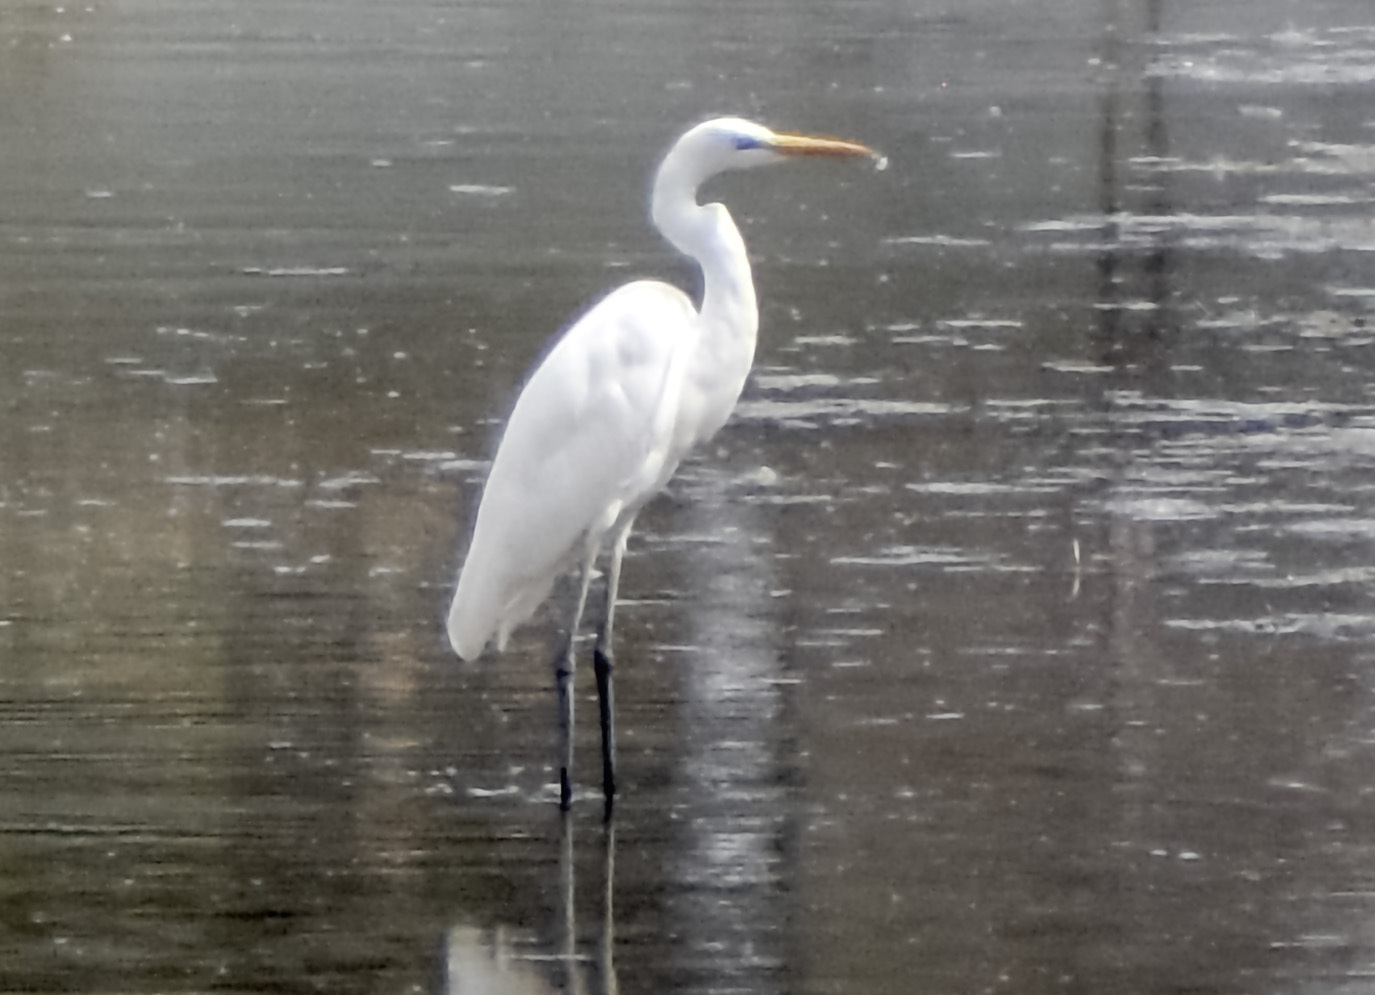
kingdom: Animalia
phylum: Chordata
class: Aves
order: Pelecaniformes
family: Ardeidae
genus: Ardea
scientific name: Ardea alba
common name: Great egret
